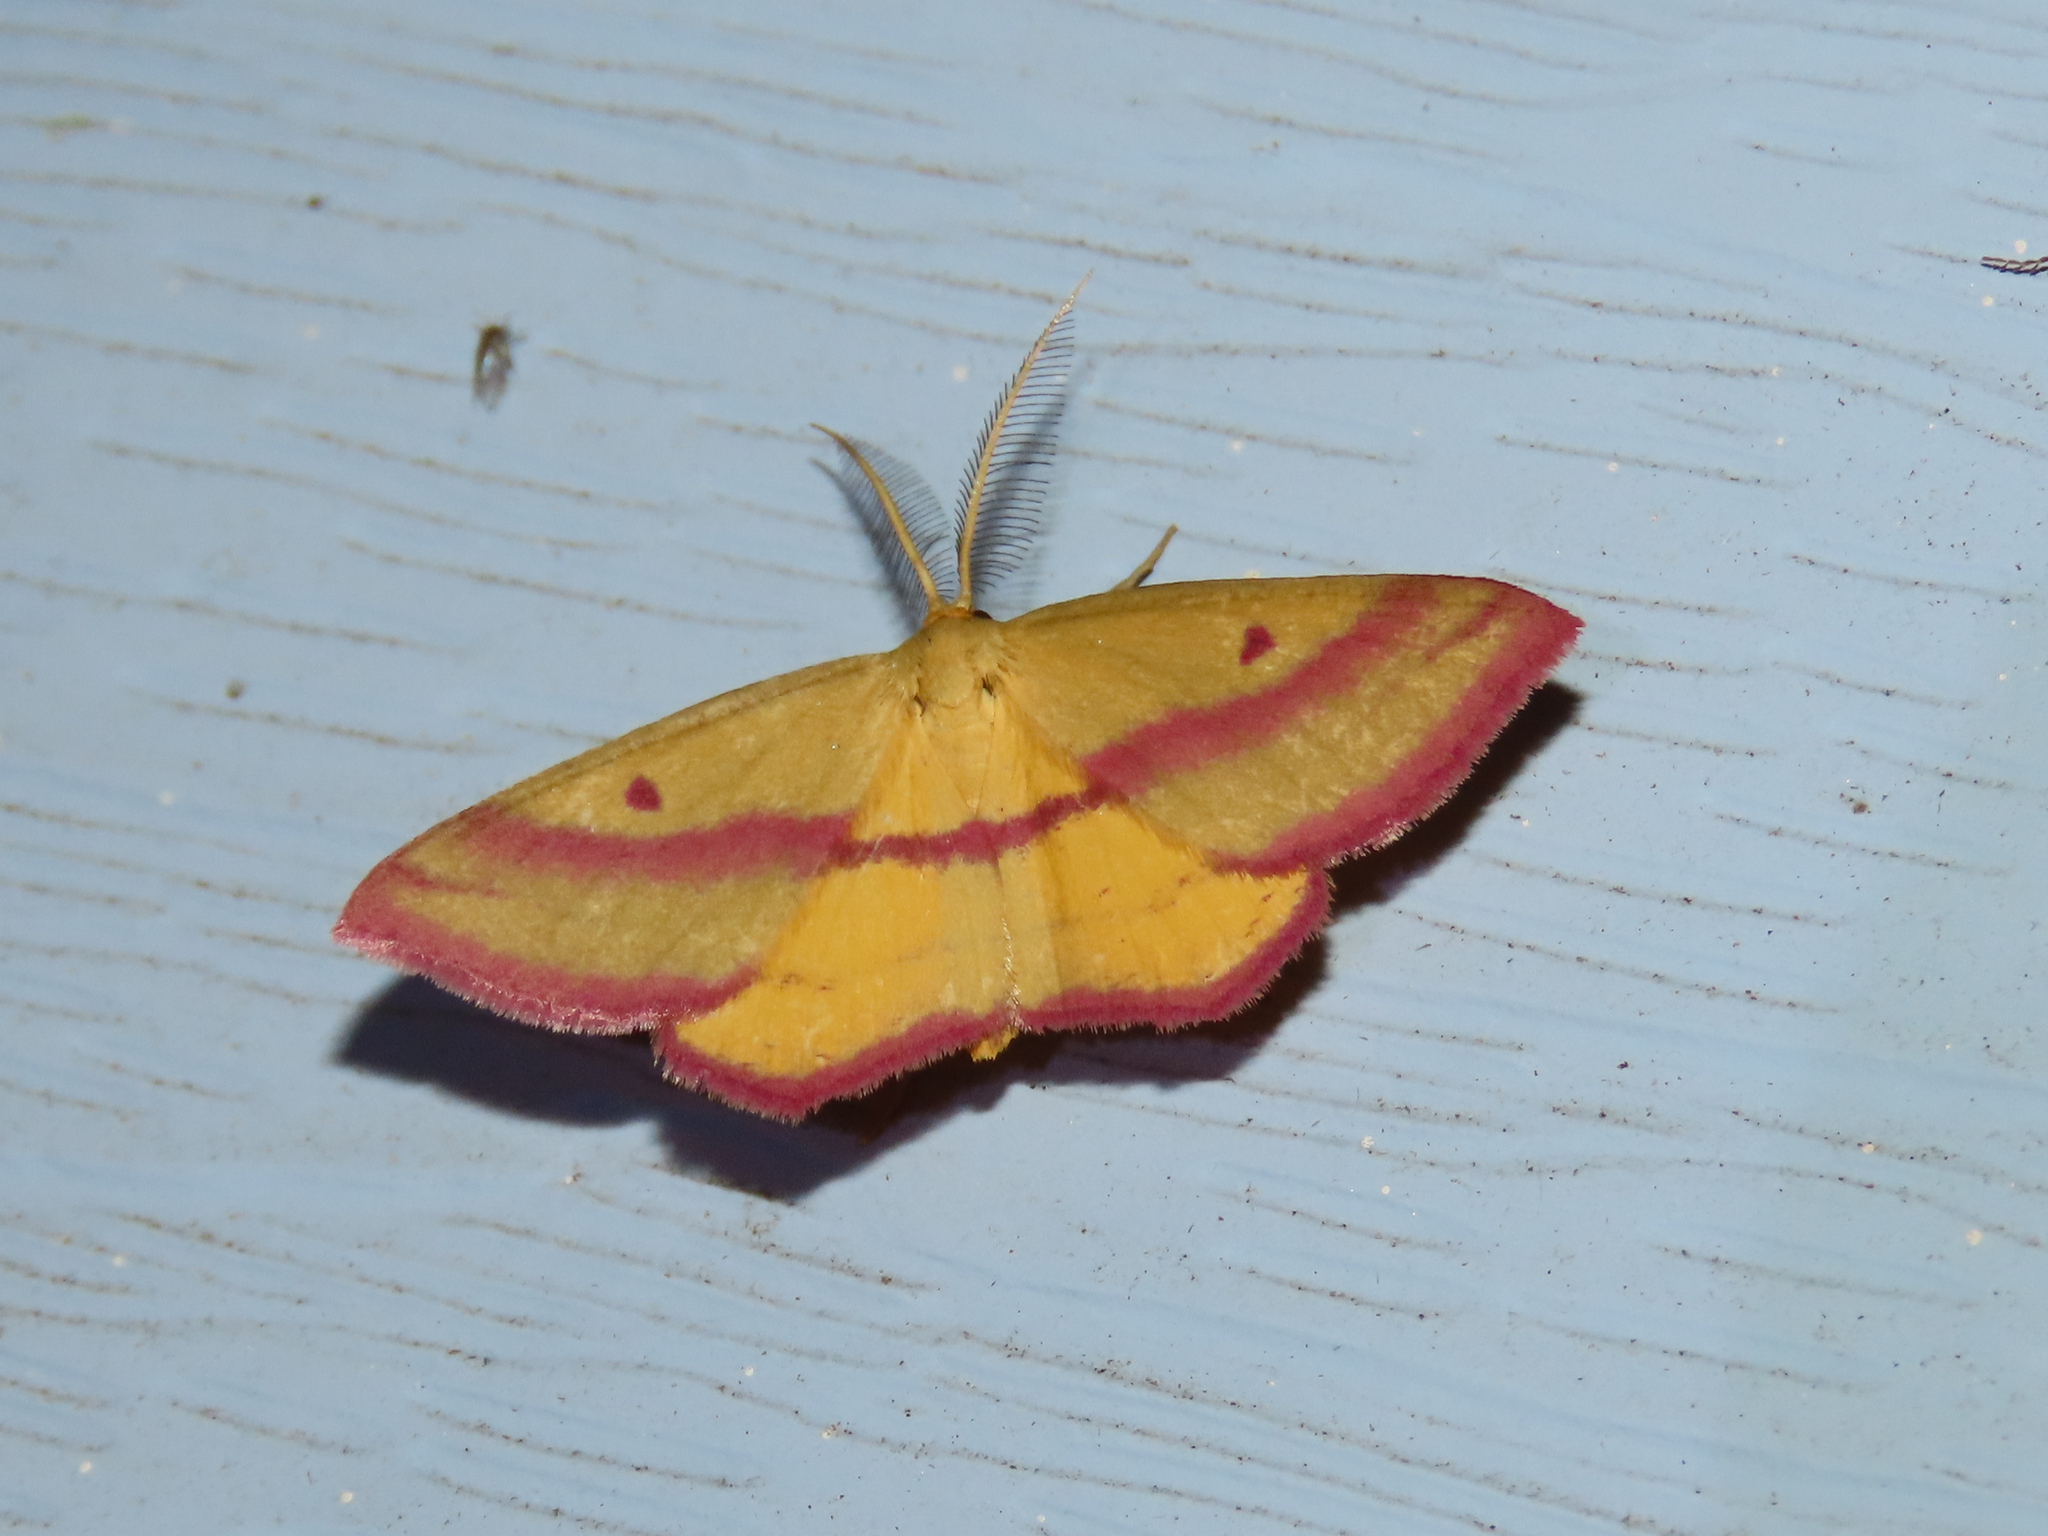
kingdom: Animalia
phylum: Arthropoda
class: Insecta
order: Lepidoptera
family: Geometridae
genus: Haematopis
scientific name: Haematopis grataria
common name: Chickweed geometer
